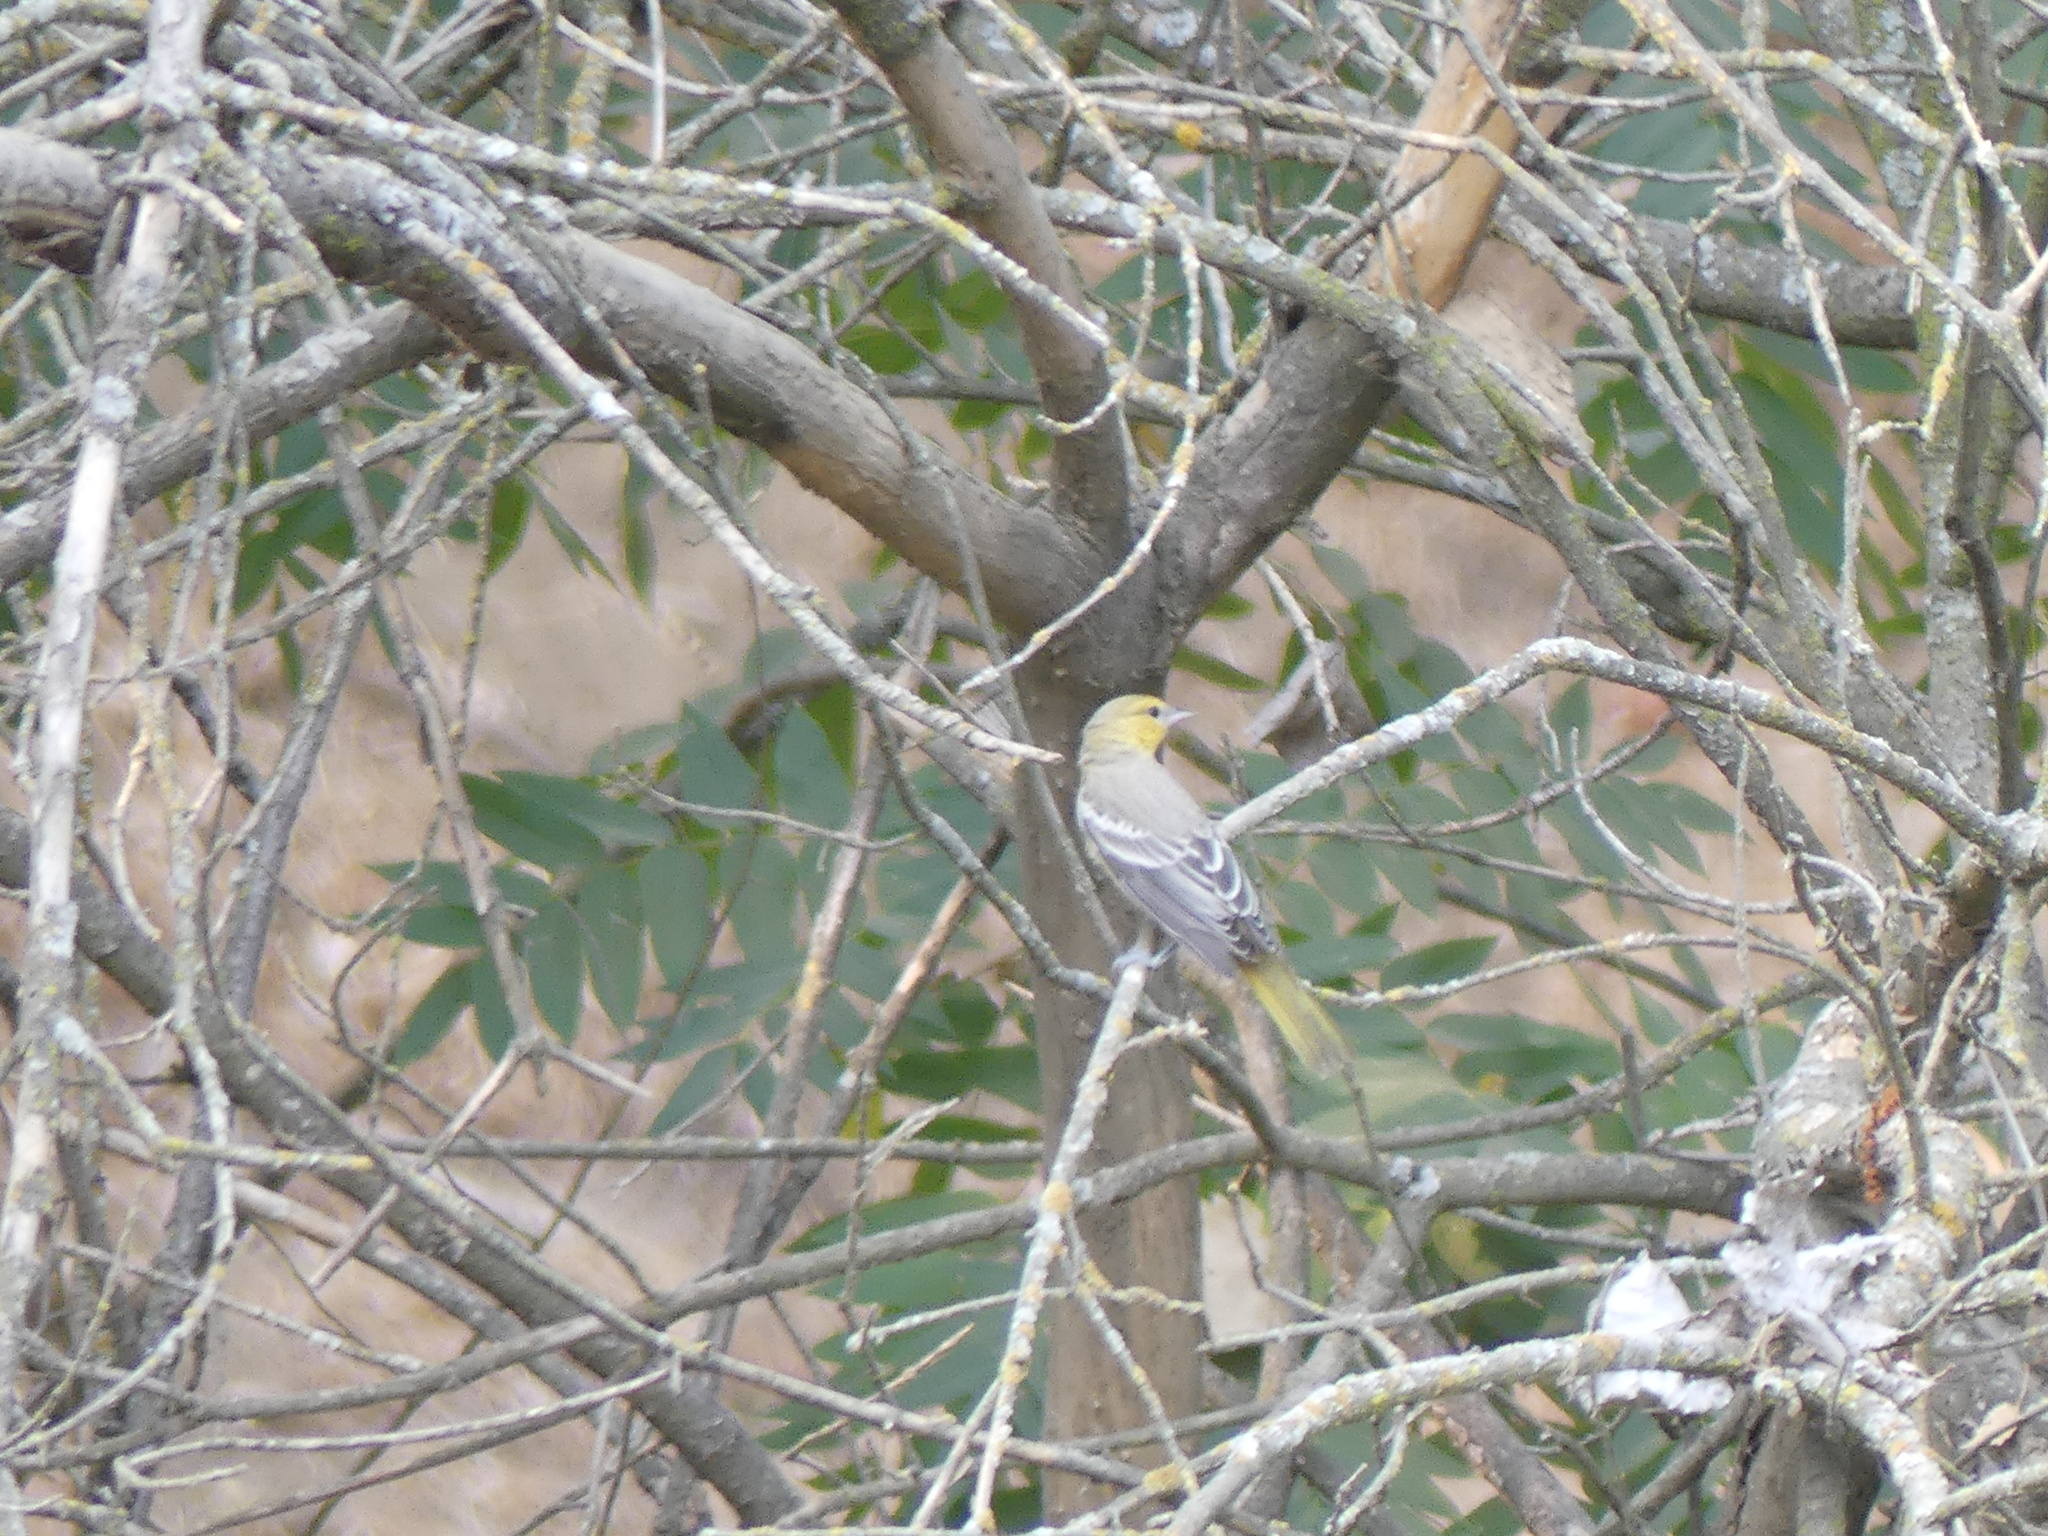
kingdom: Animalia
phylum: Chordata
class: Aves
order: Passeriformes
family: Icteridae
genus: Icterus
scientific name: Icterus bullockii
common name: Bullock's oriole
